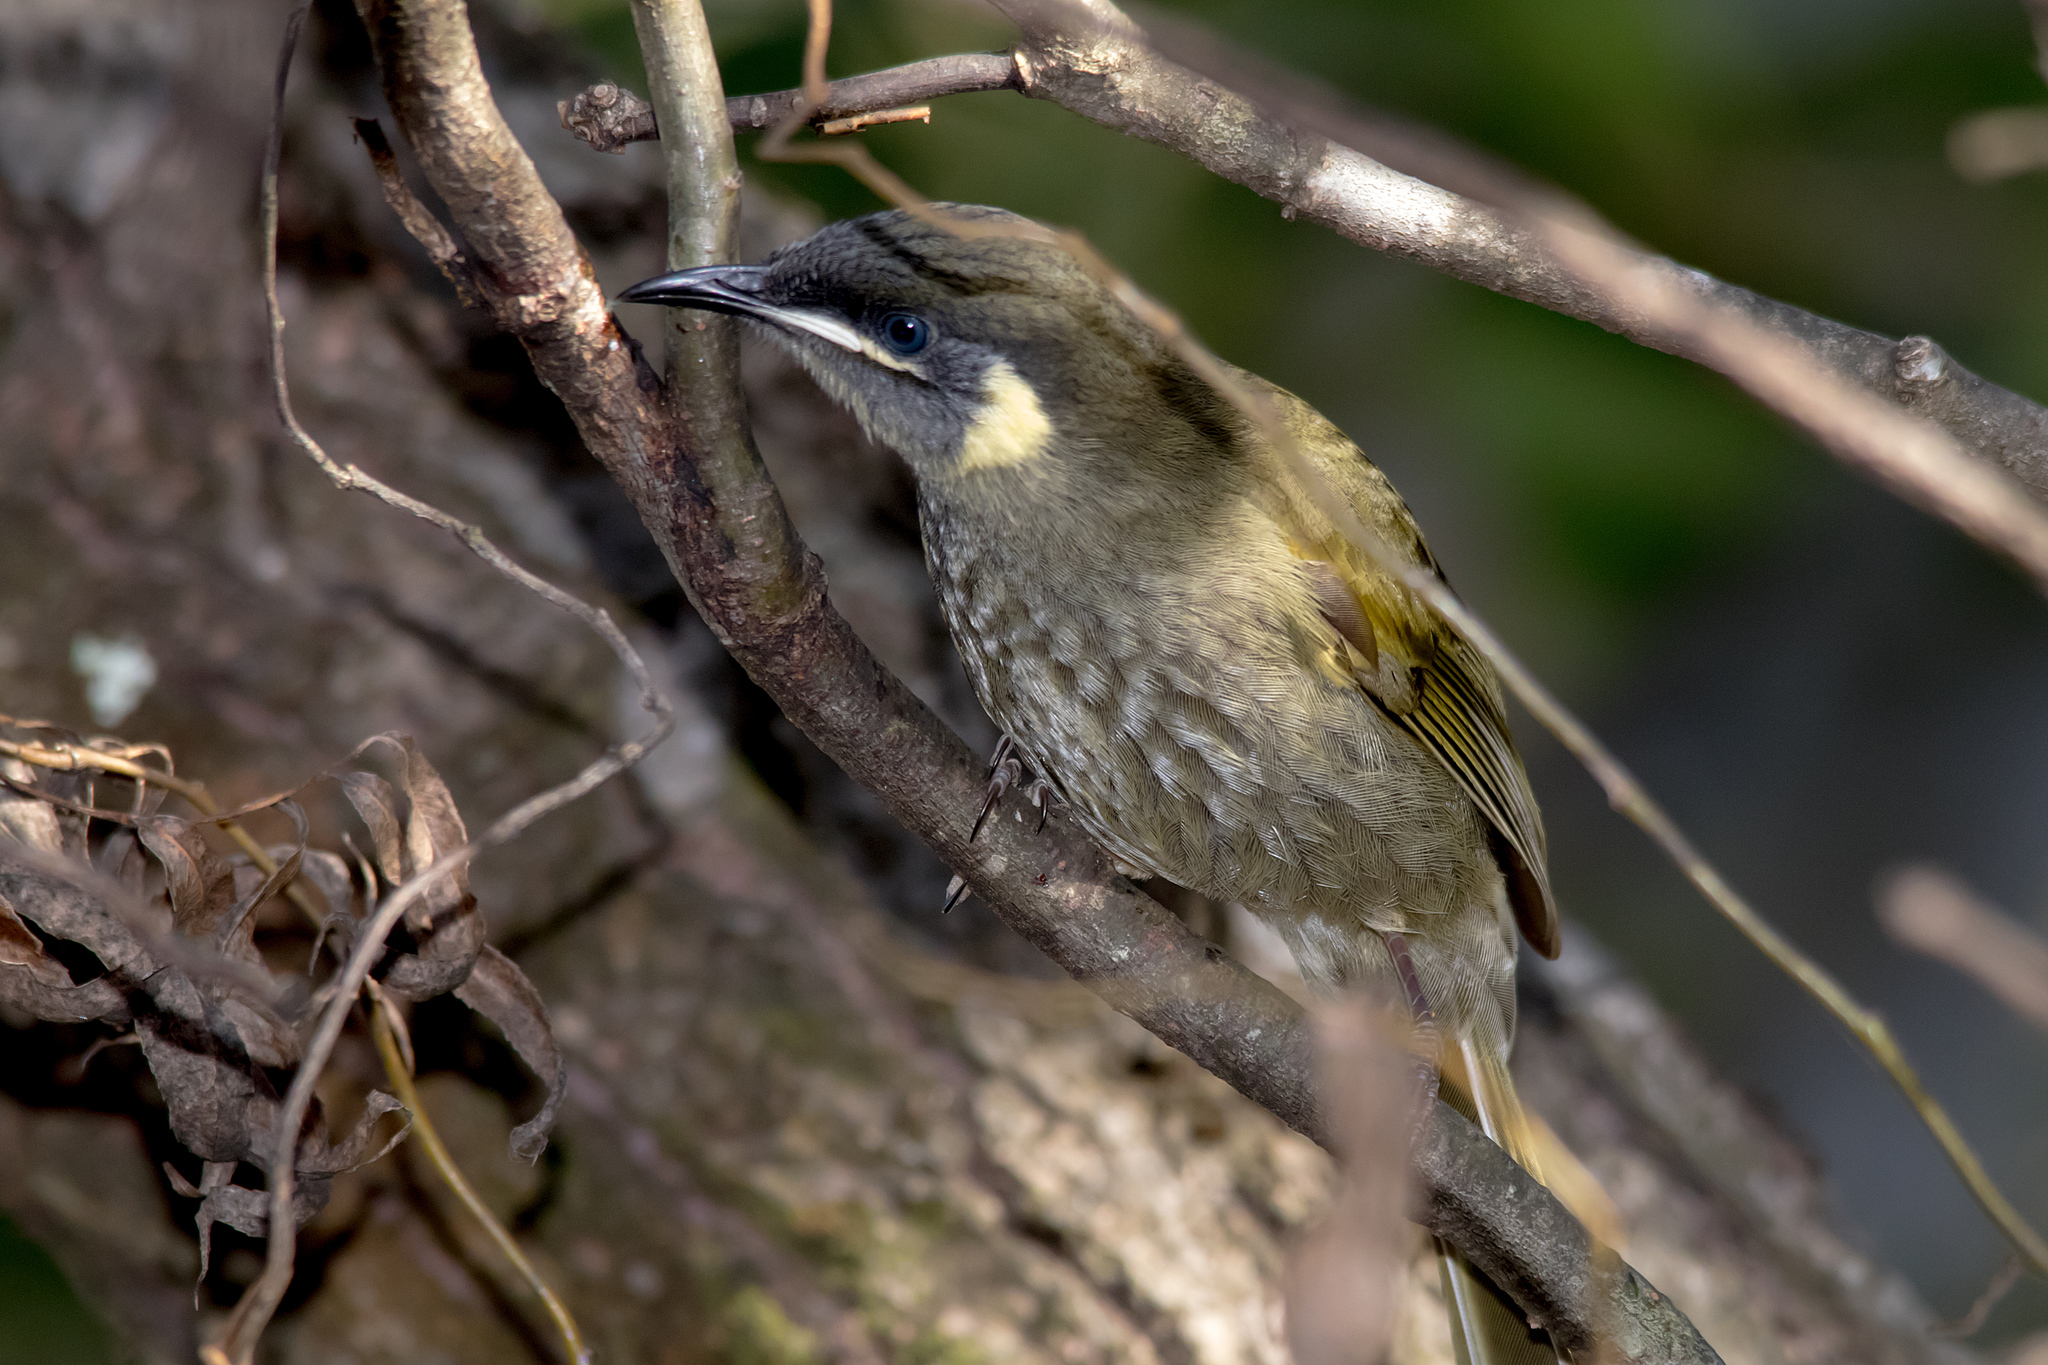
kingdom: Animalia
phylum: Chordata
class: Aves
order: Passeriformes
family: Meliphagidae
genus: Meliphaga
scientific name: Meliphaga lewinii
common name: Lewin's honeyeater
